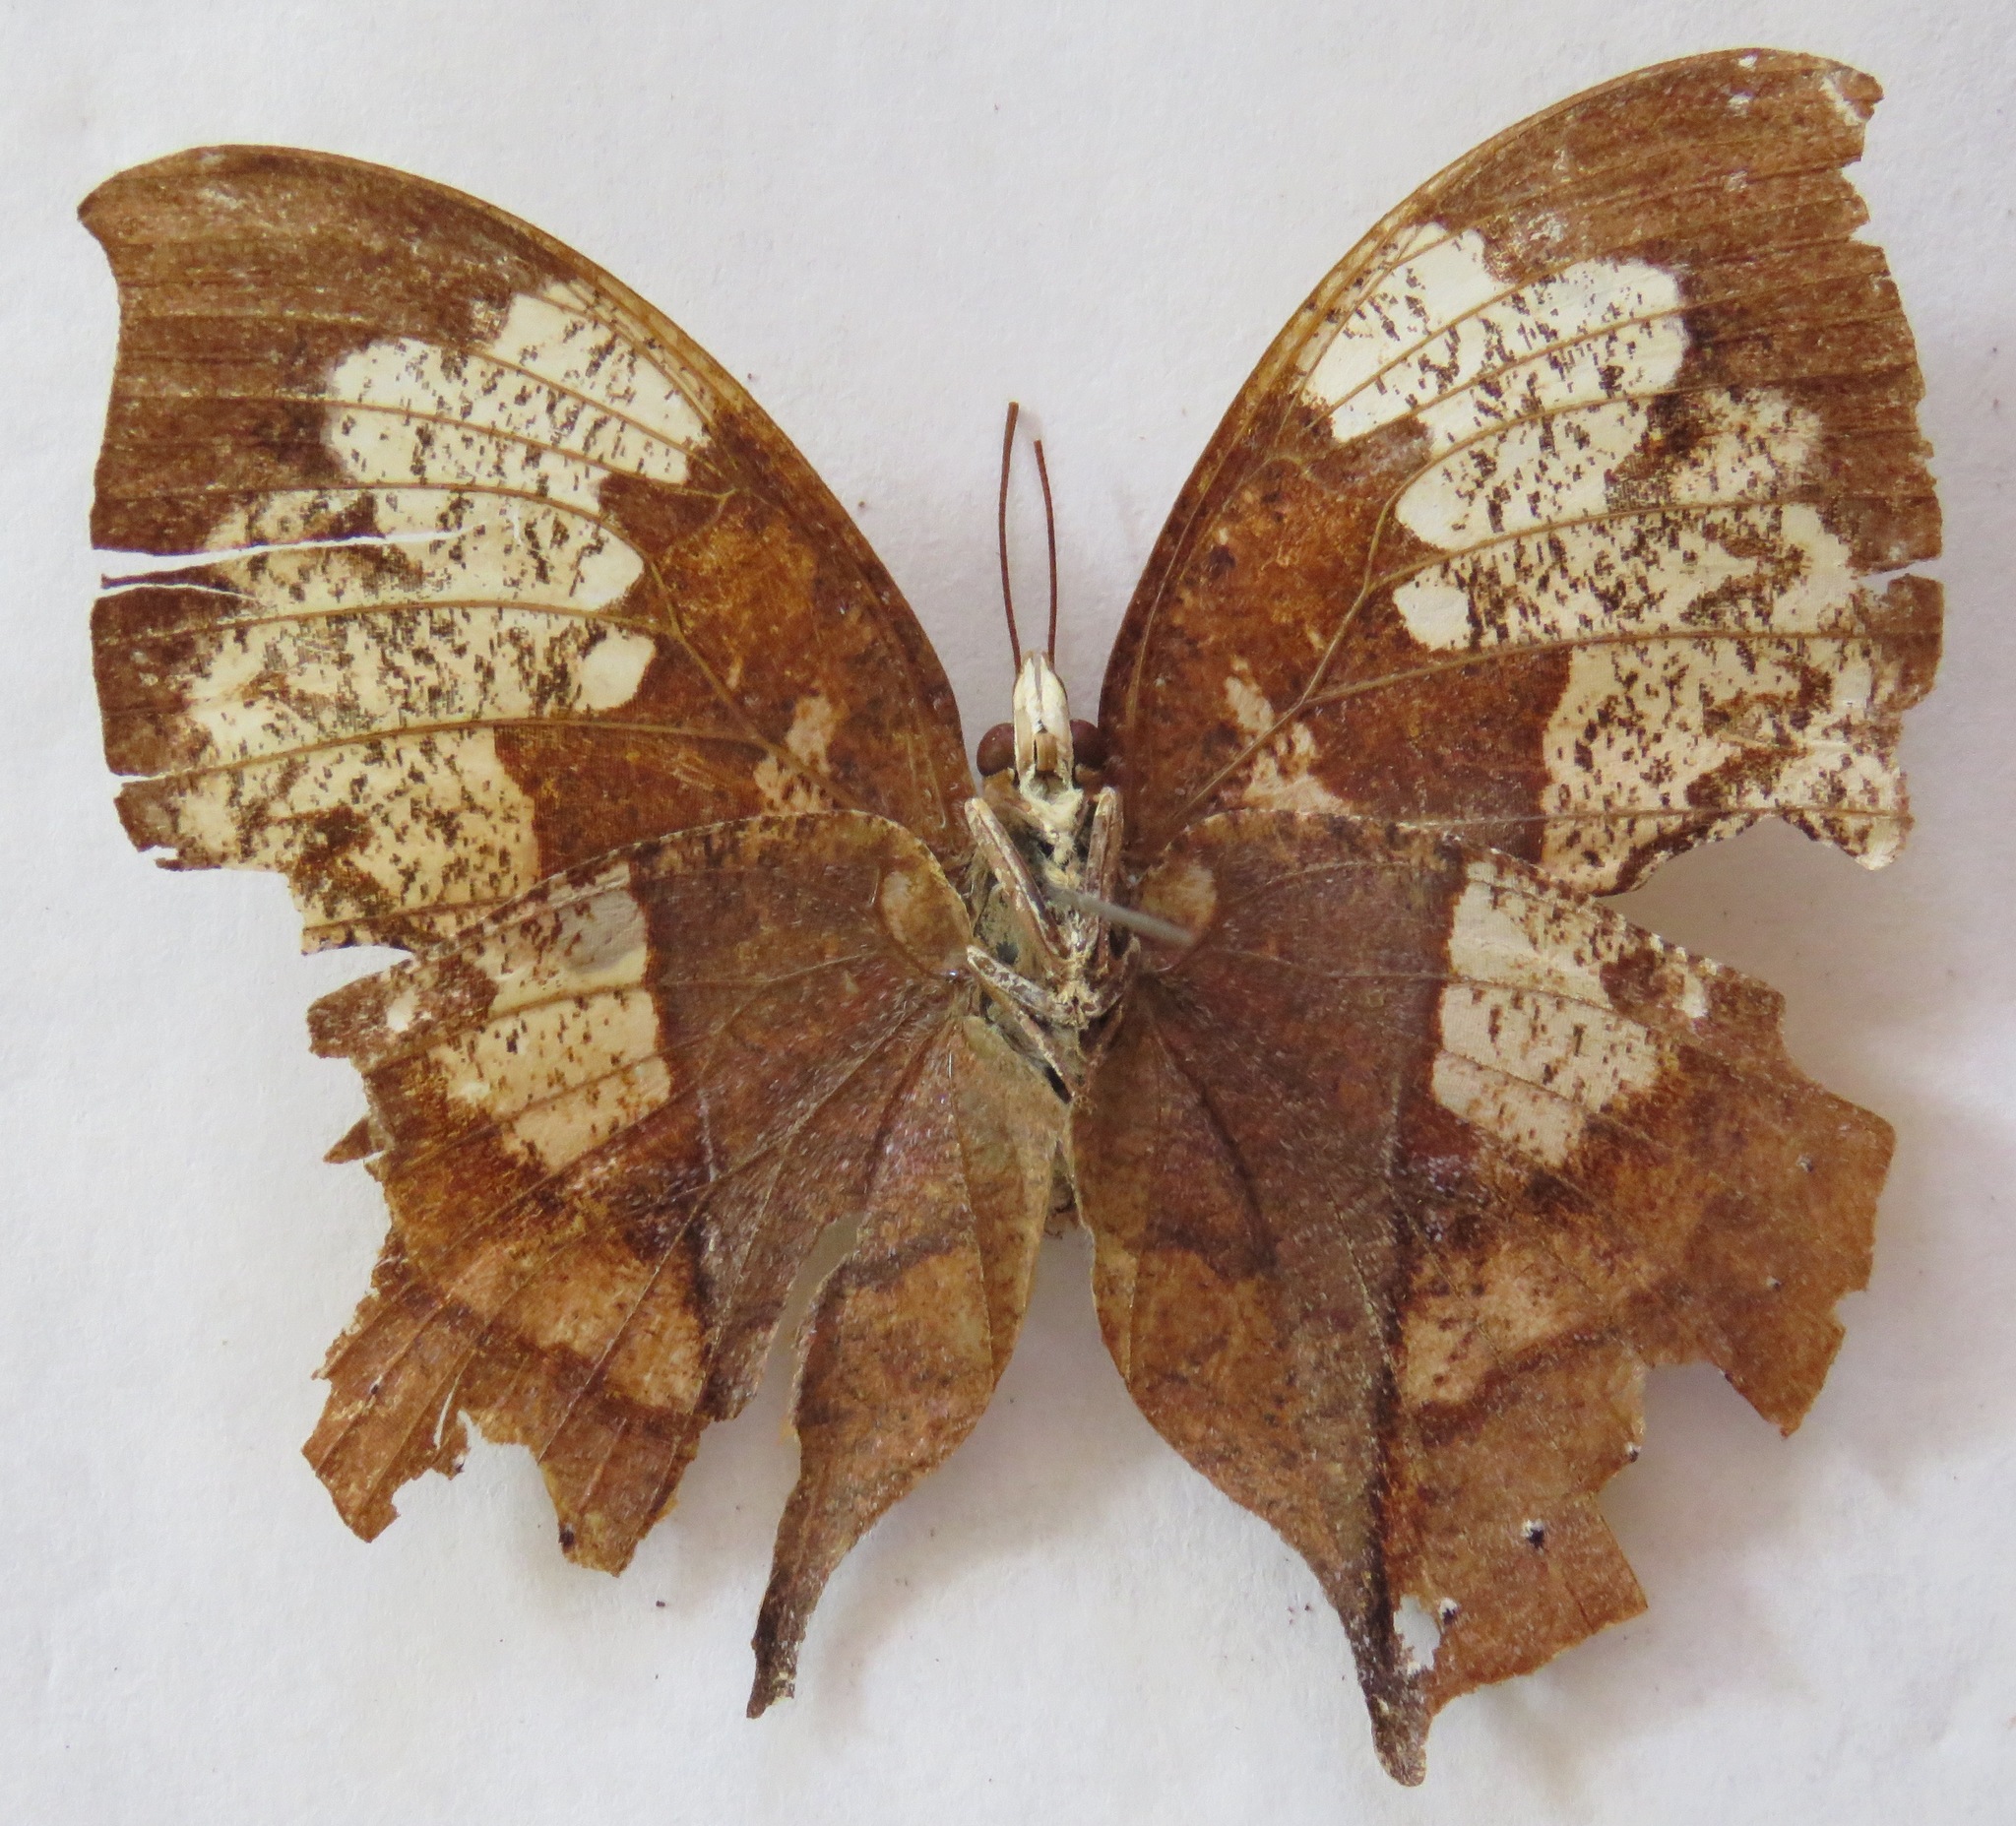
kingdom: Animalia
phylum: Arthropoda
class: Insecta
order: Lepidoptera
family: Nymphalidae
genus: Zaretis
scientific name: Zaretis crawfordhilli
